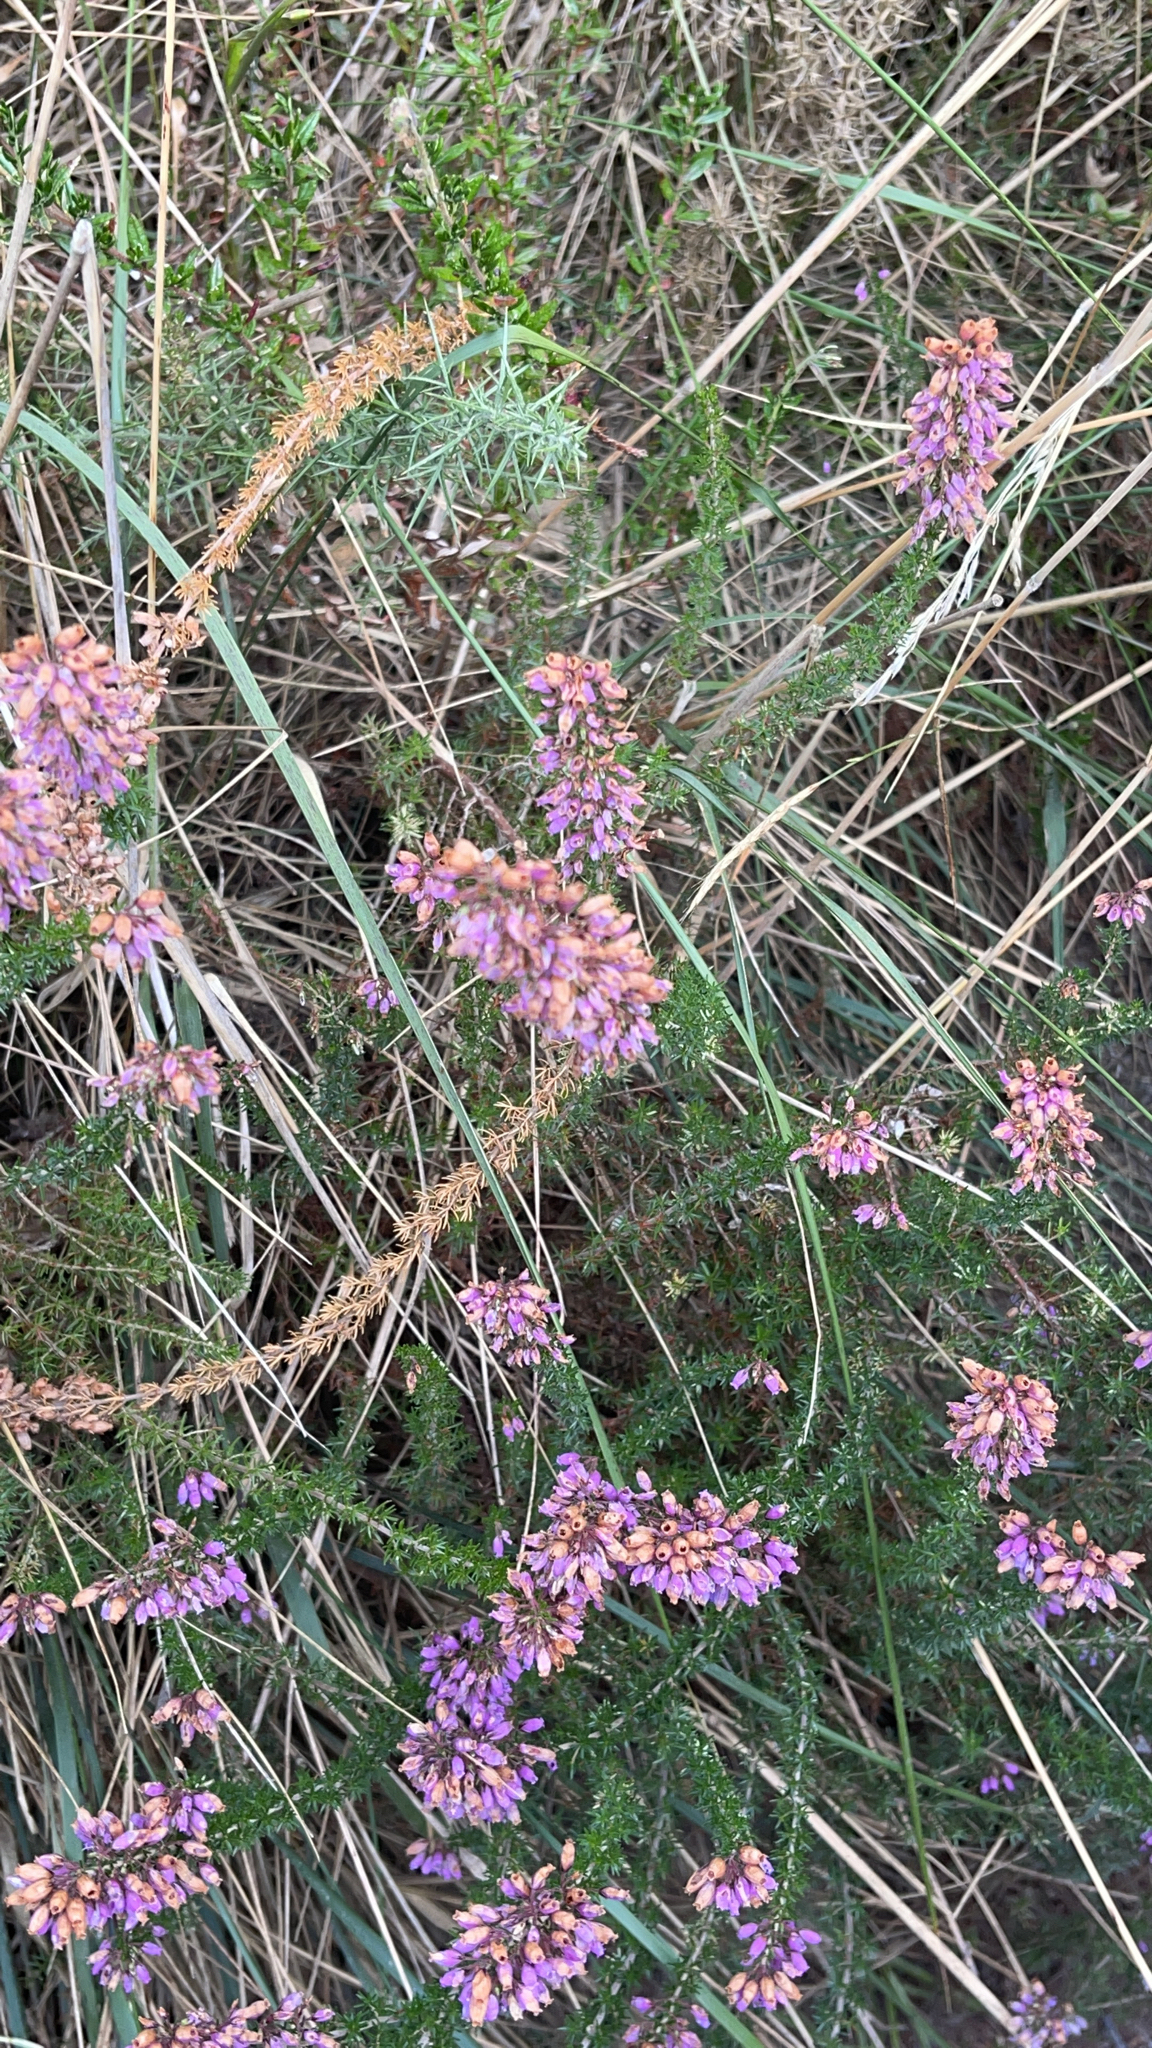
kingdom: Plantae
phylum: Tracheophyta
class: Magnoliopsida
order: Ericales
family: Ericaceae
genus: Erica
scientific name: Erica cinerea
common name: Bell heather
